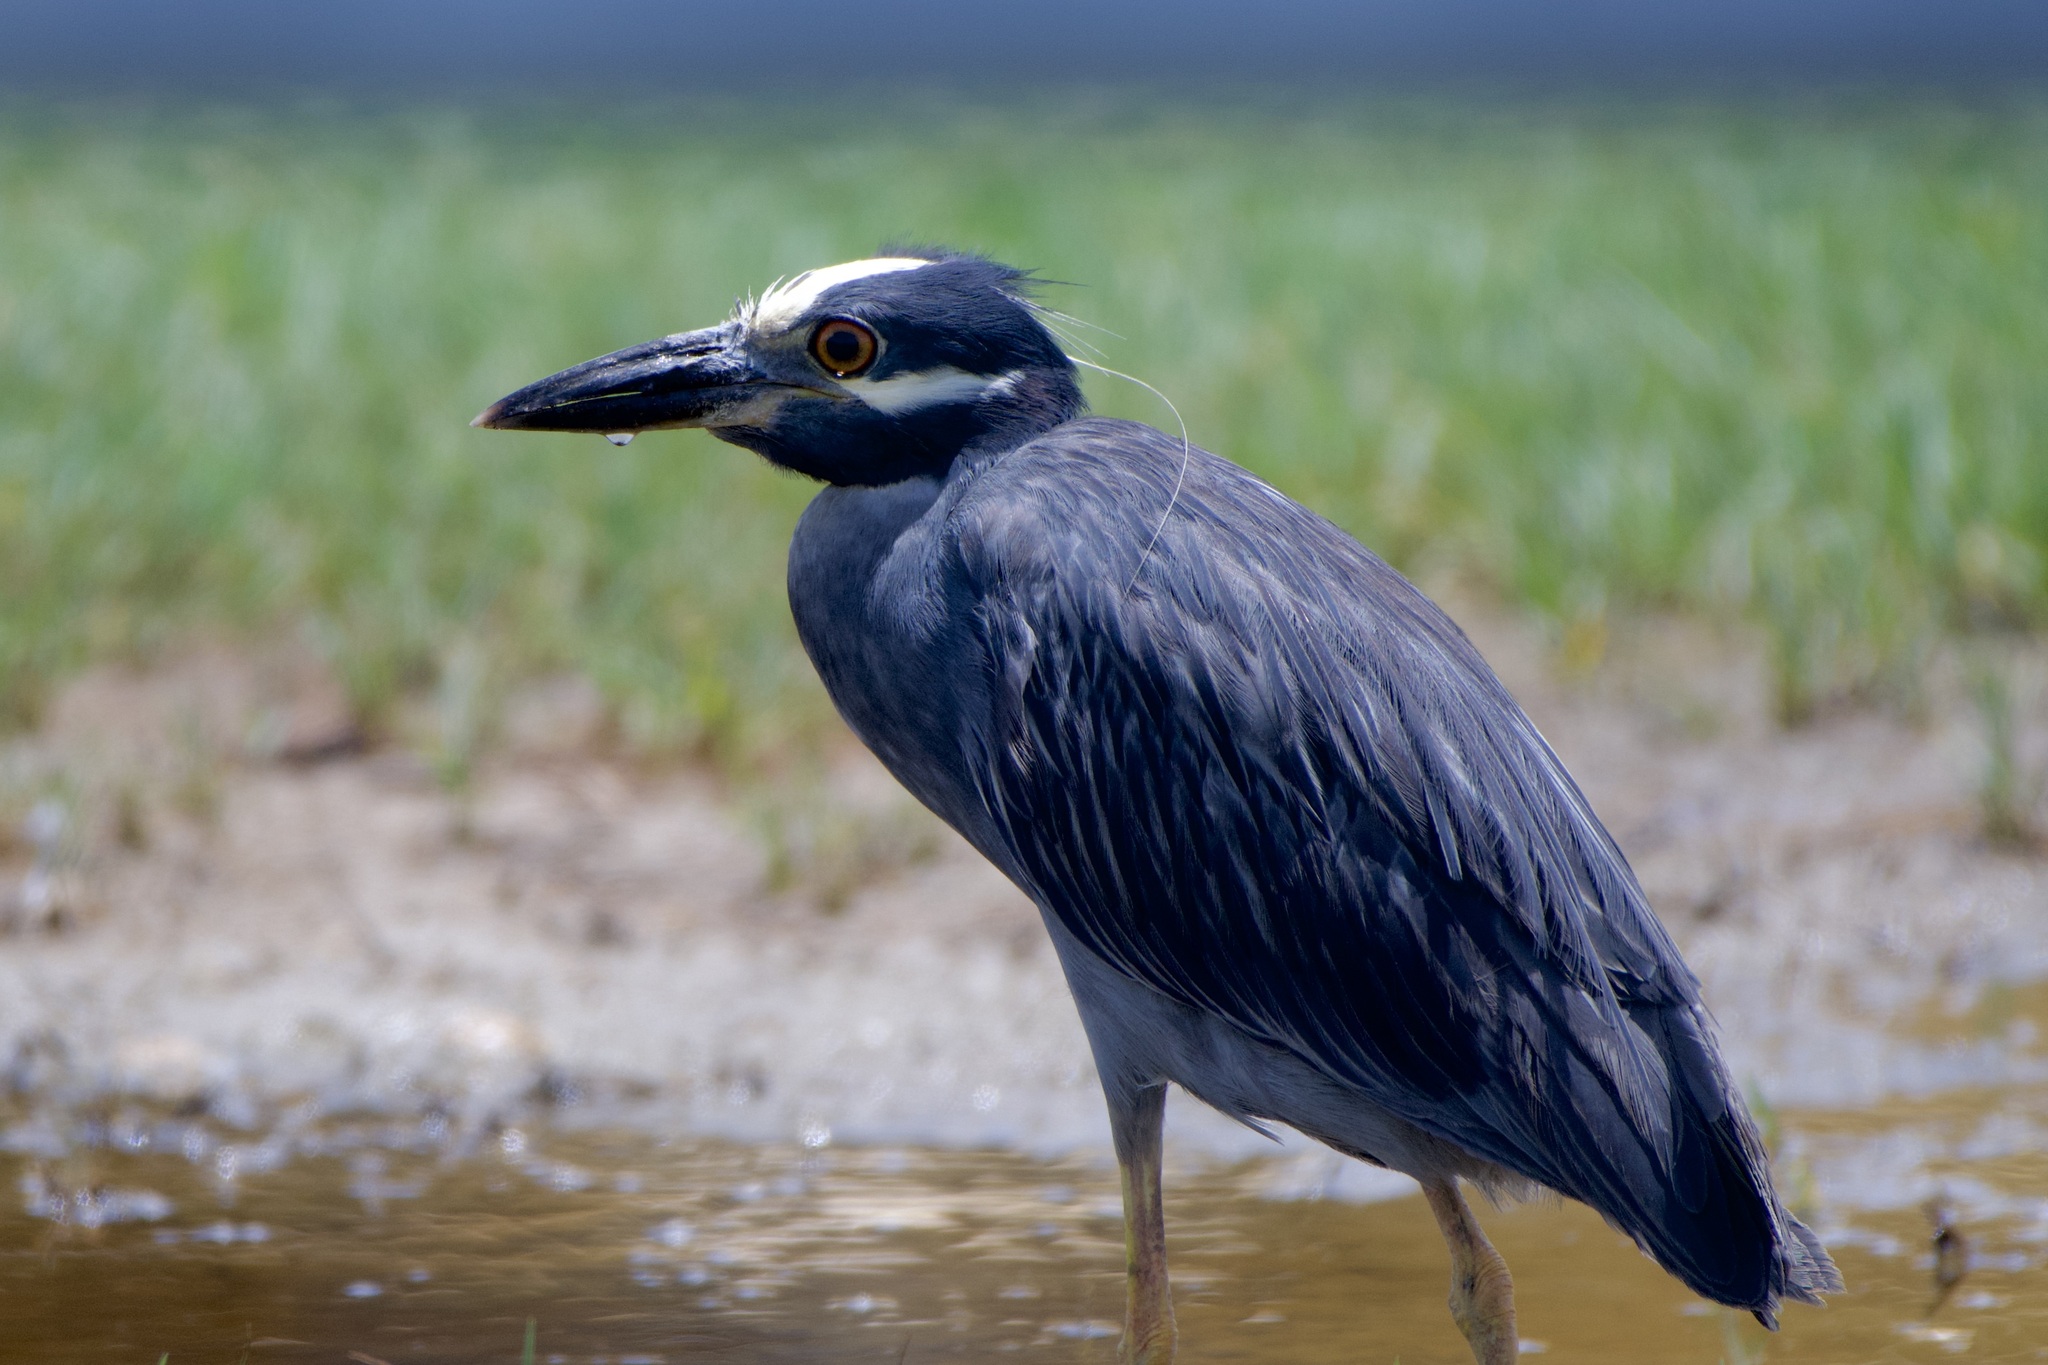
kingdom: Animalia
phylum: Chordata
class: Aves
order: Pelecaniformes
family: Ardeidae
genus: Nyctanassa
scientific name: Nyctanassa violacea
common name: Yellow-crowned night heron
